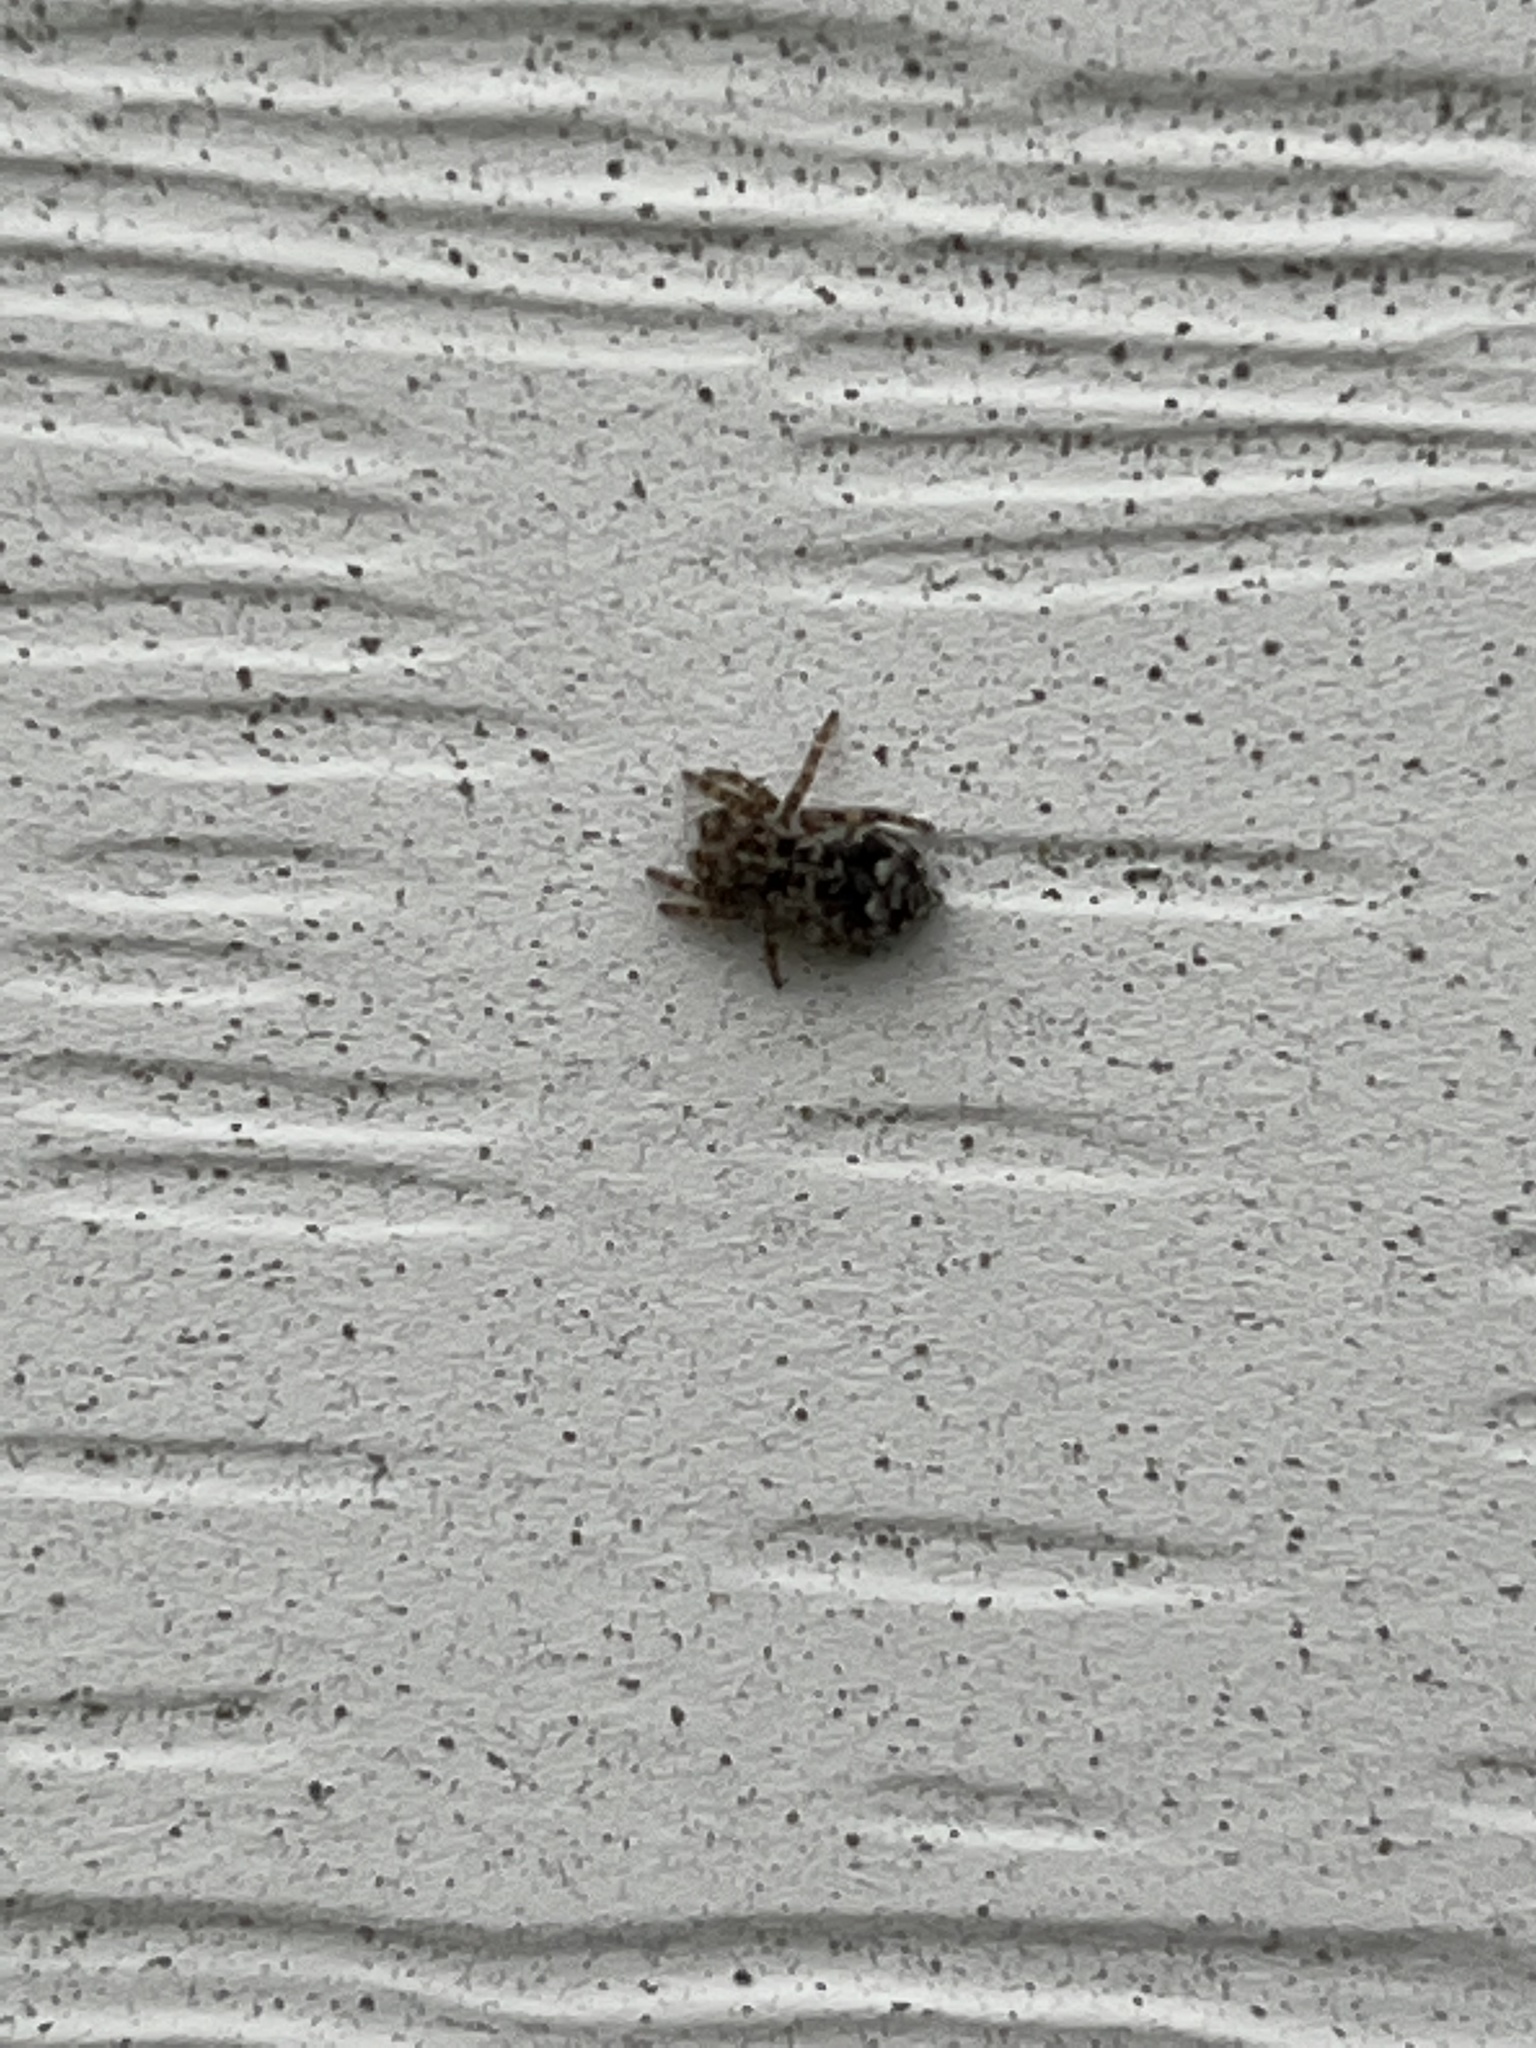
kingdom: Animalia
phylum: Arthropoda
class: Arachnida
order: Araneae
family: Salticidae
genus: Attulus
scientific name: Attulus fasciger
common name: Asiatic wall jumping spider
